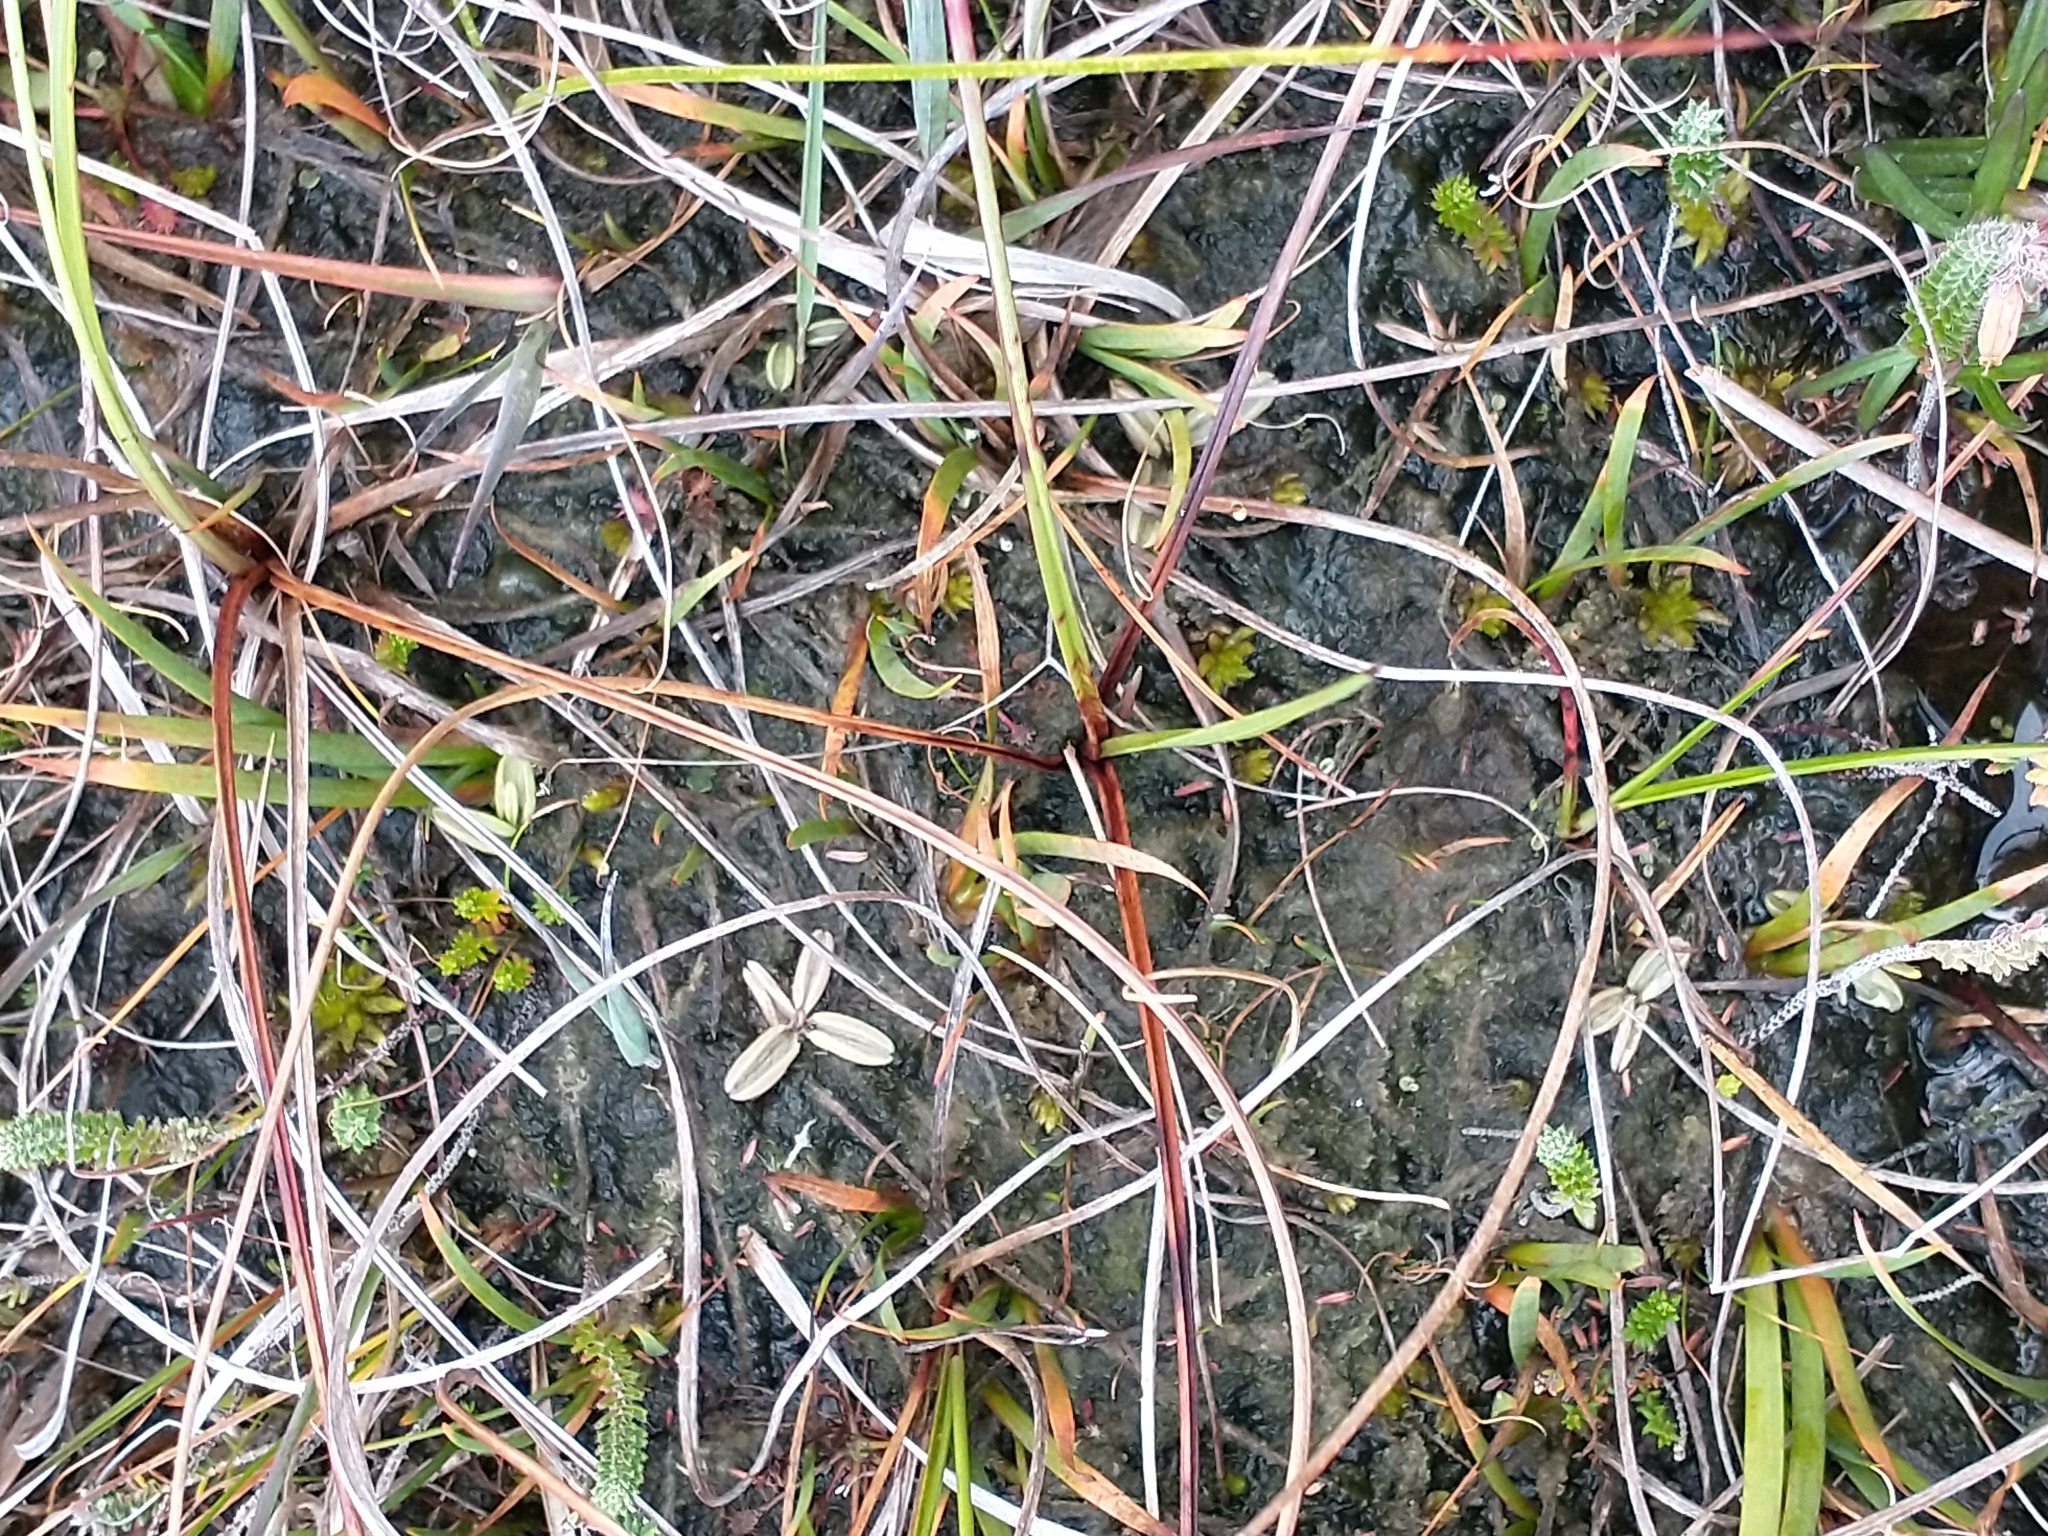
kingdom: Plantae
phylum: Tracheophyta
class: Magnoliopsida
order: Lamiales
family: Lentibulariaceae
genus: Pinguicula
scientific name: Pinguicula lusitanica
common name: Pale butterwort
